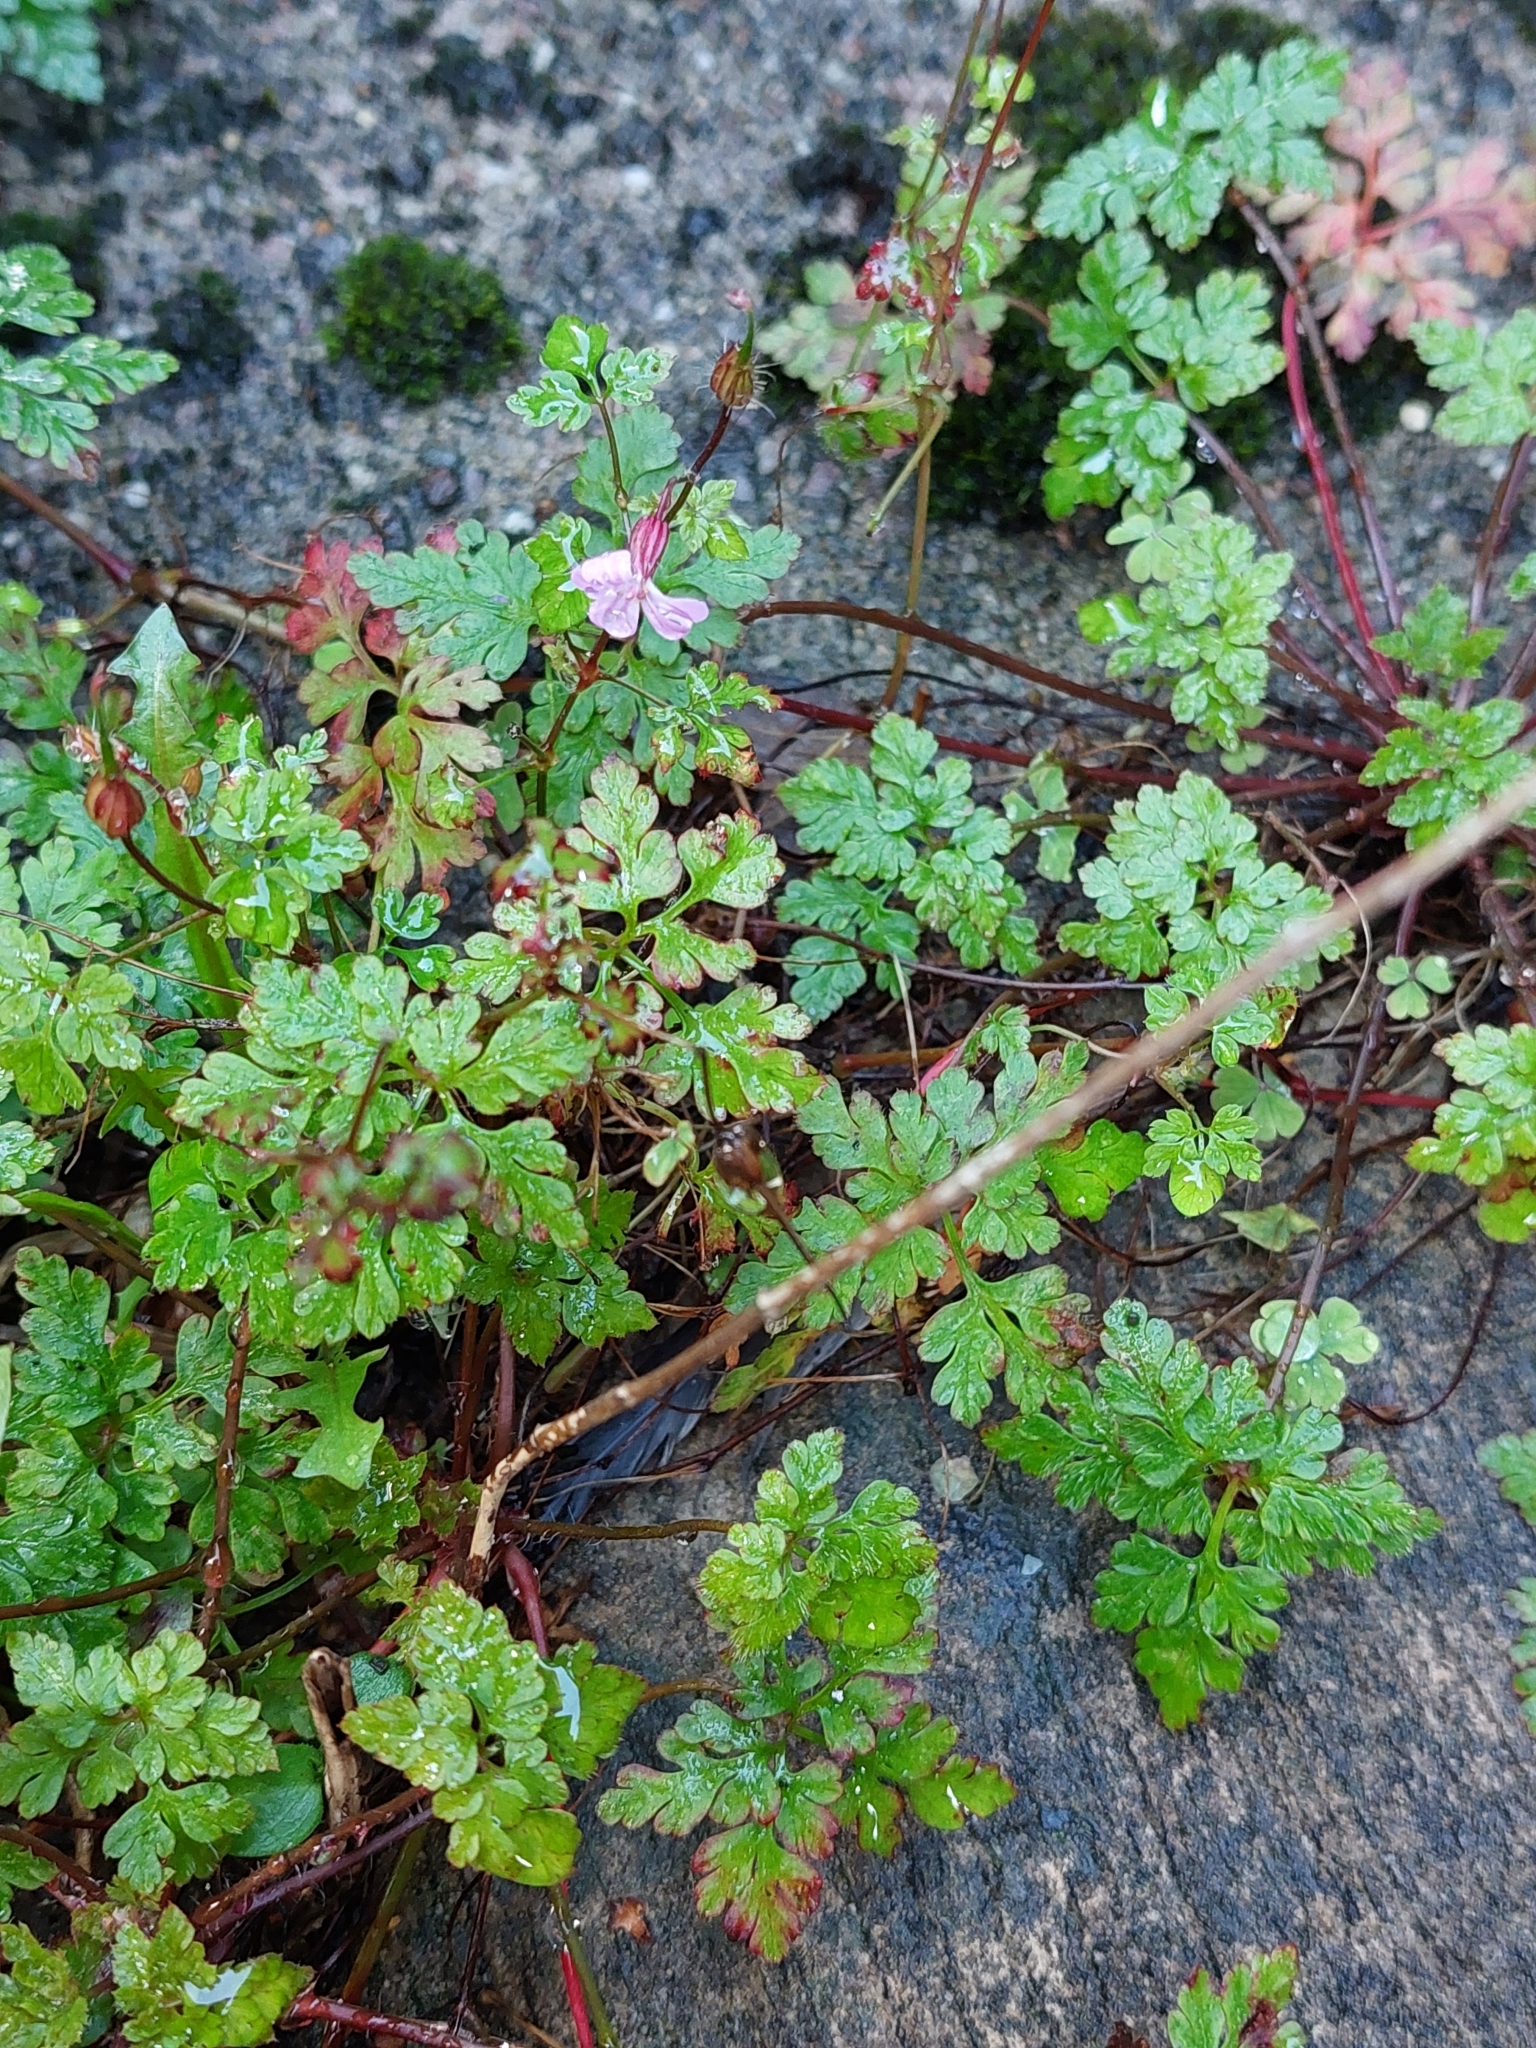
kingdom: Plantae
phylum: Tracheophyta
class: Magnoliopsida
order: Geraniales
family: Geraniaceae
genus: Geranium
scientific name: Geranium robertianum
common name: Herb-robert
